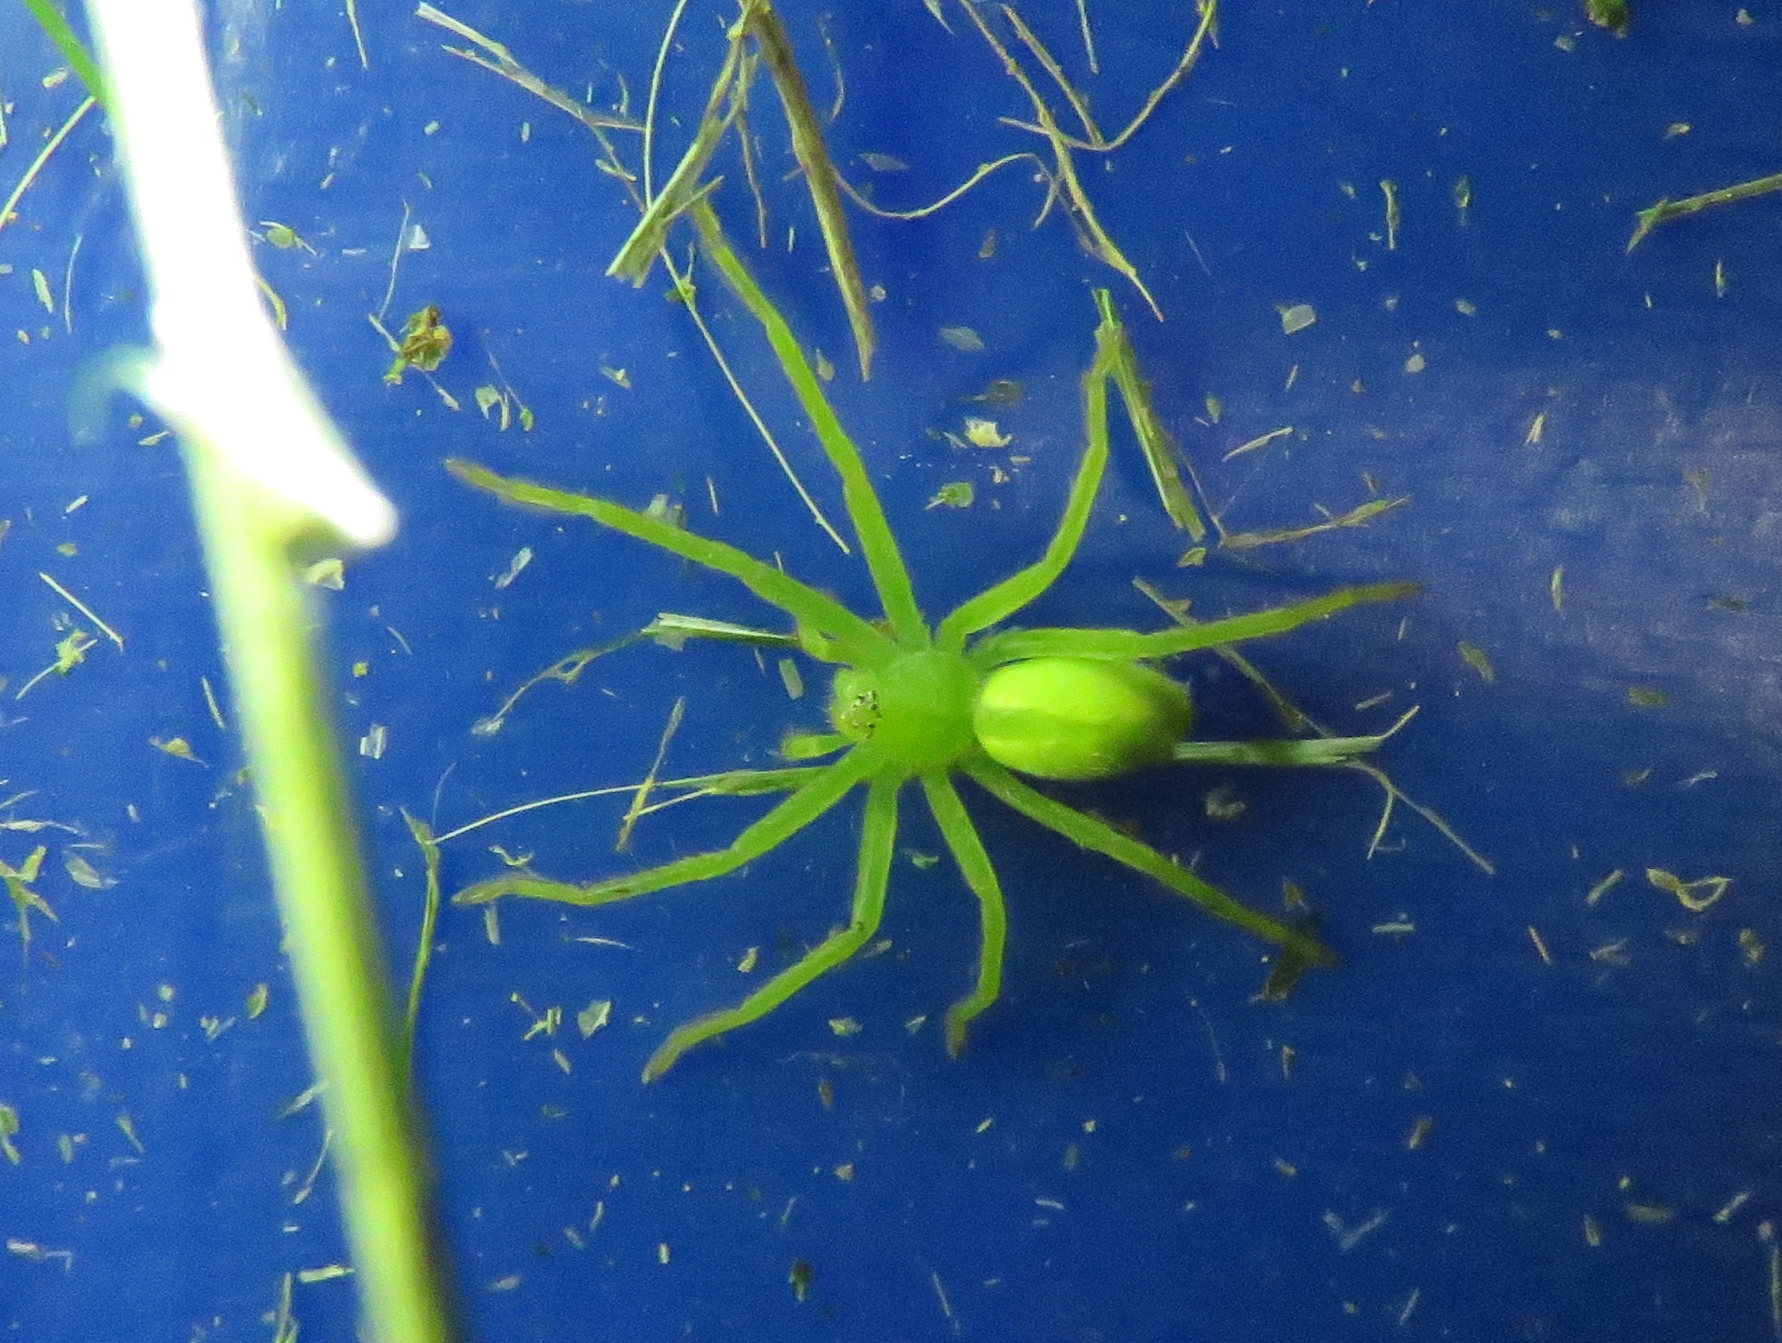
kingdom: Animalia
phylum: Arthropoda
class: Arachnida
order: Araneae
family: Sparassidae
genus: Micrommata
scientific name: Micrommata virescens
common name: Green spider
